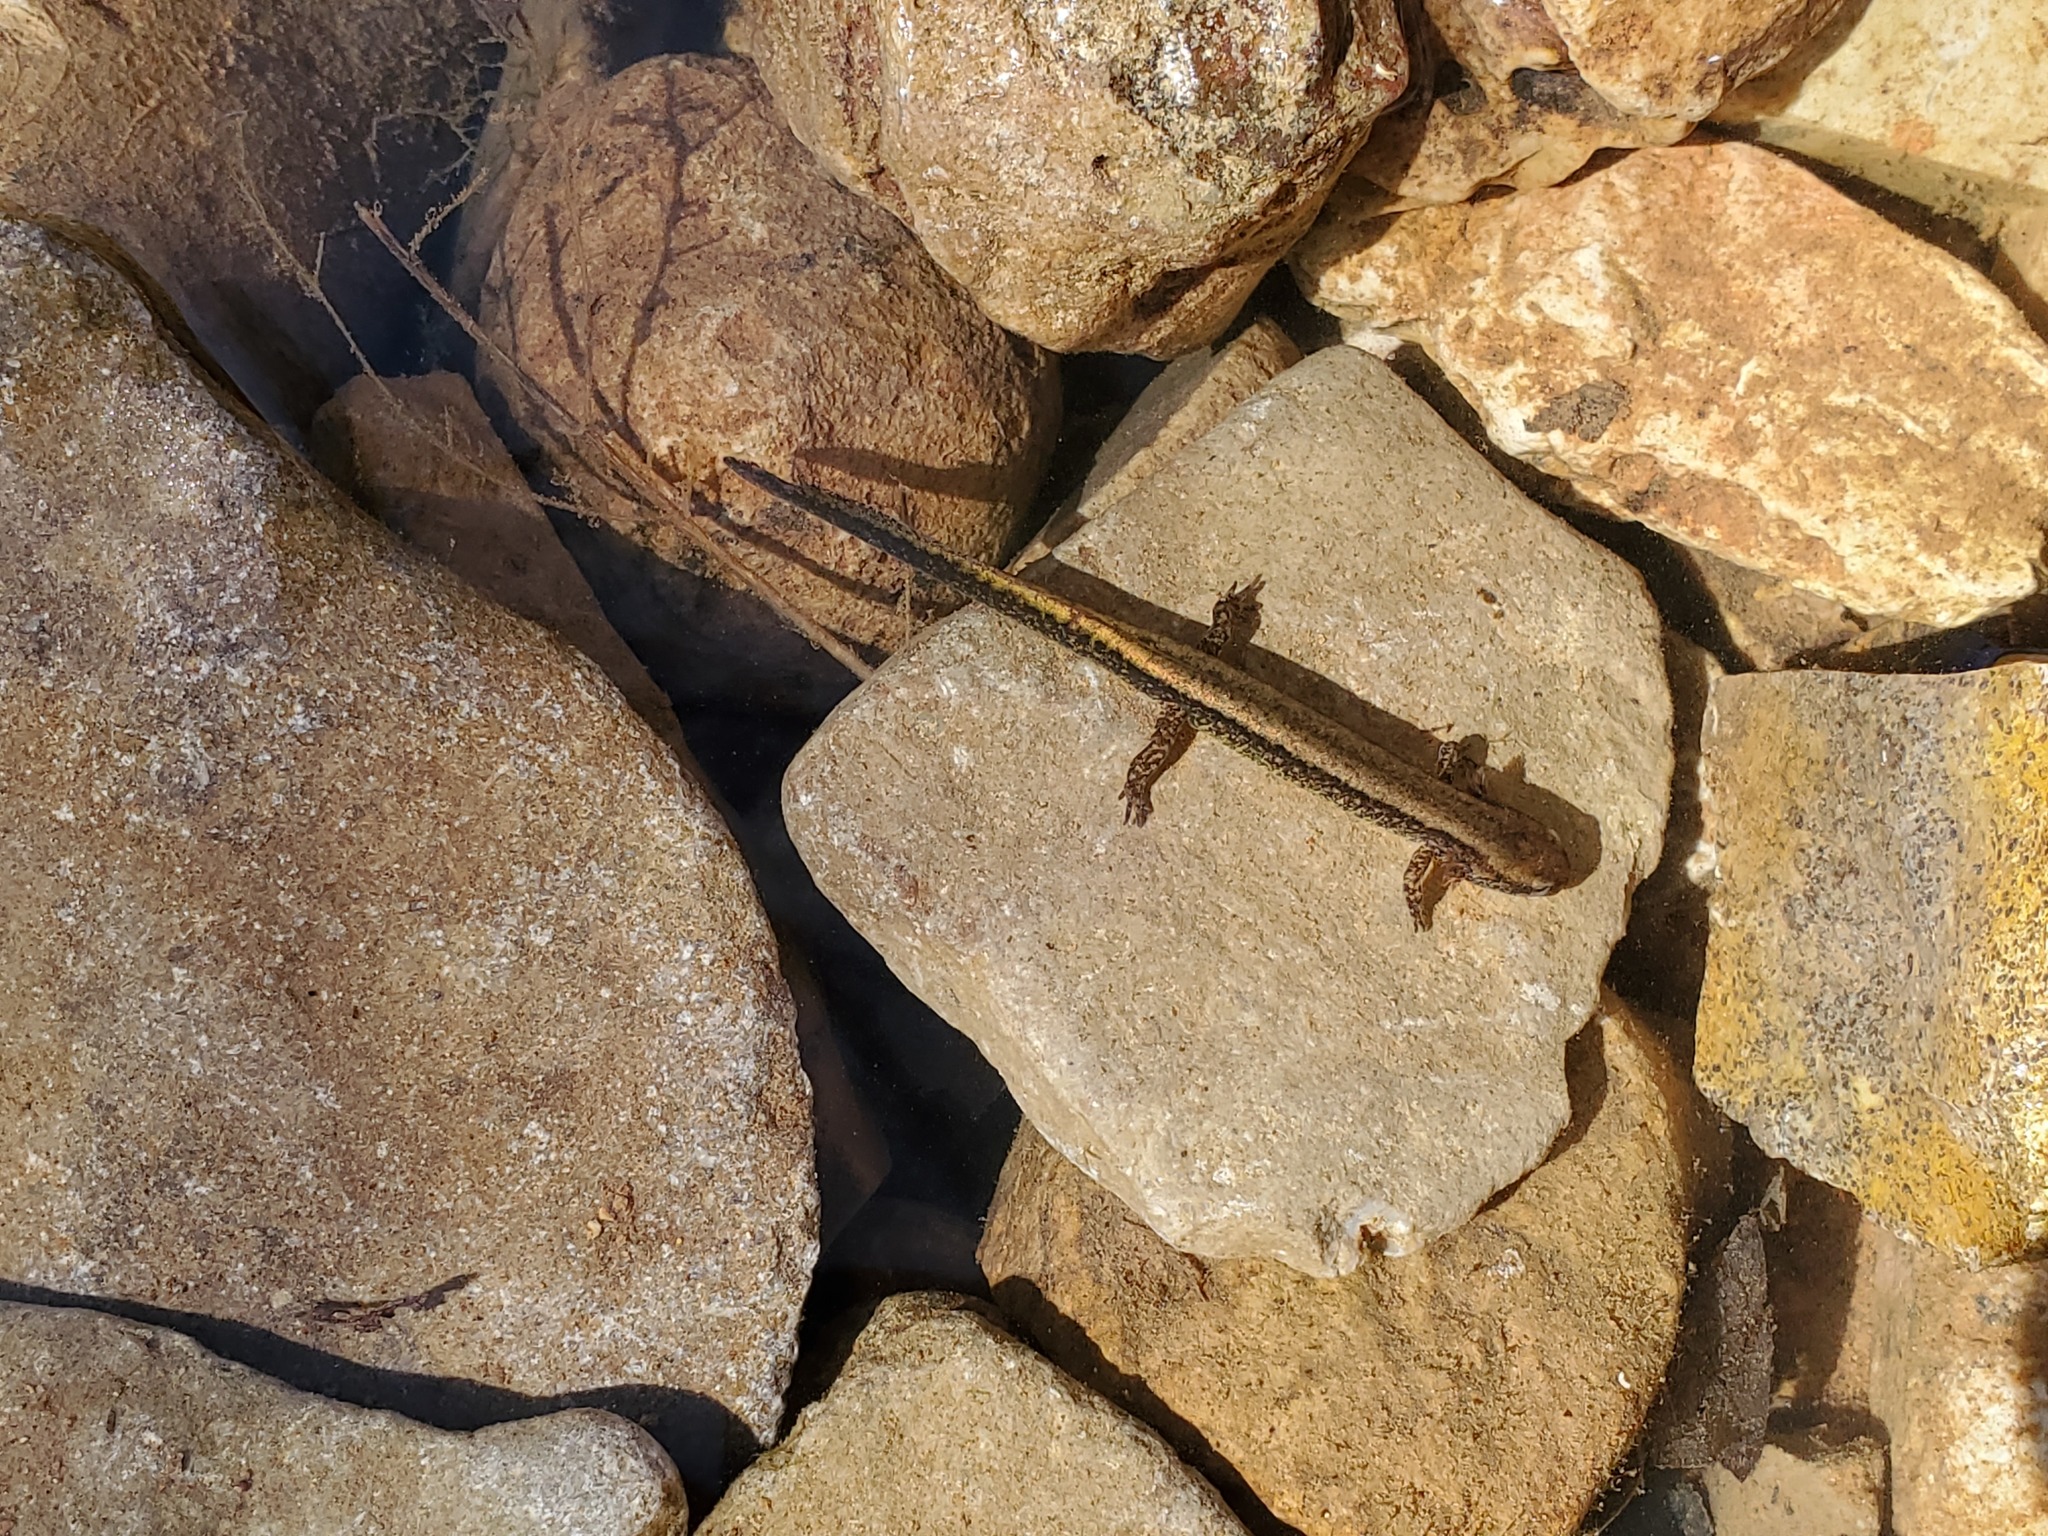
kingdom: Animalia
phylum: Chordata
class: Amphibia
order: Caudata
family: Plethodontidae
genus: Eurycea
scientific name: Eurycea cirrigera
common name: Southern two-lined salamander
